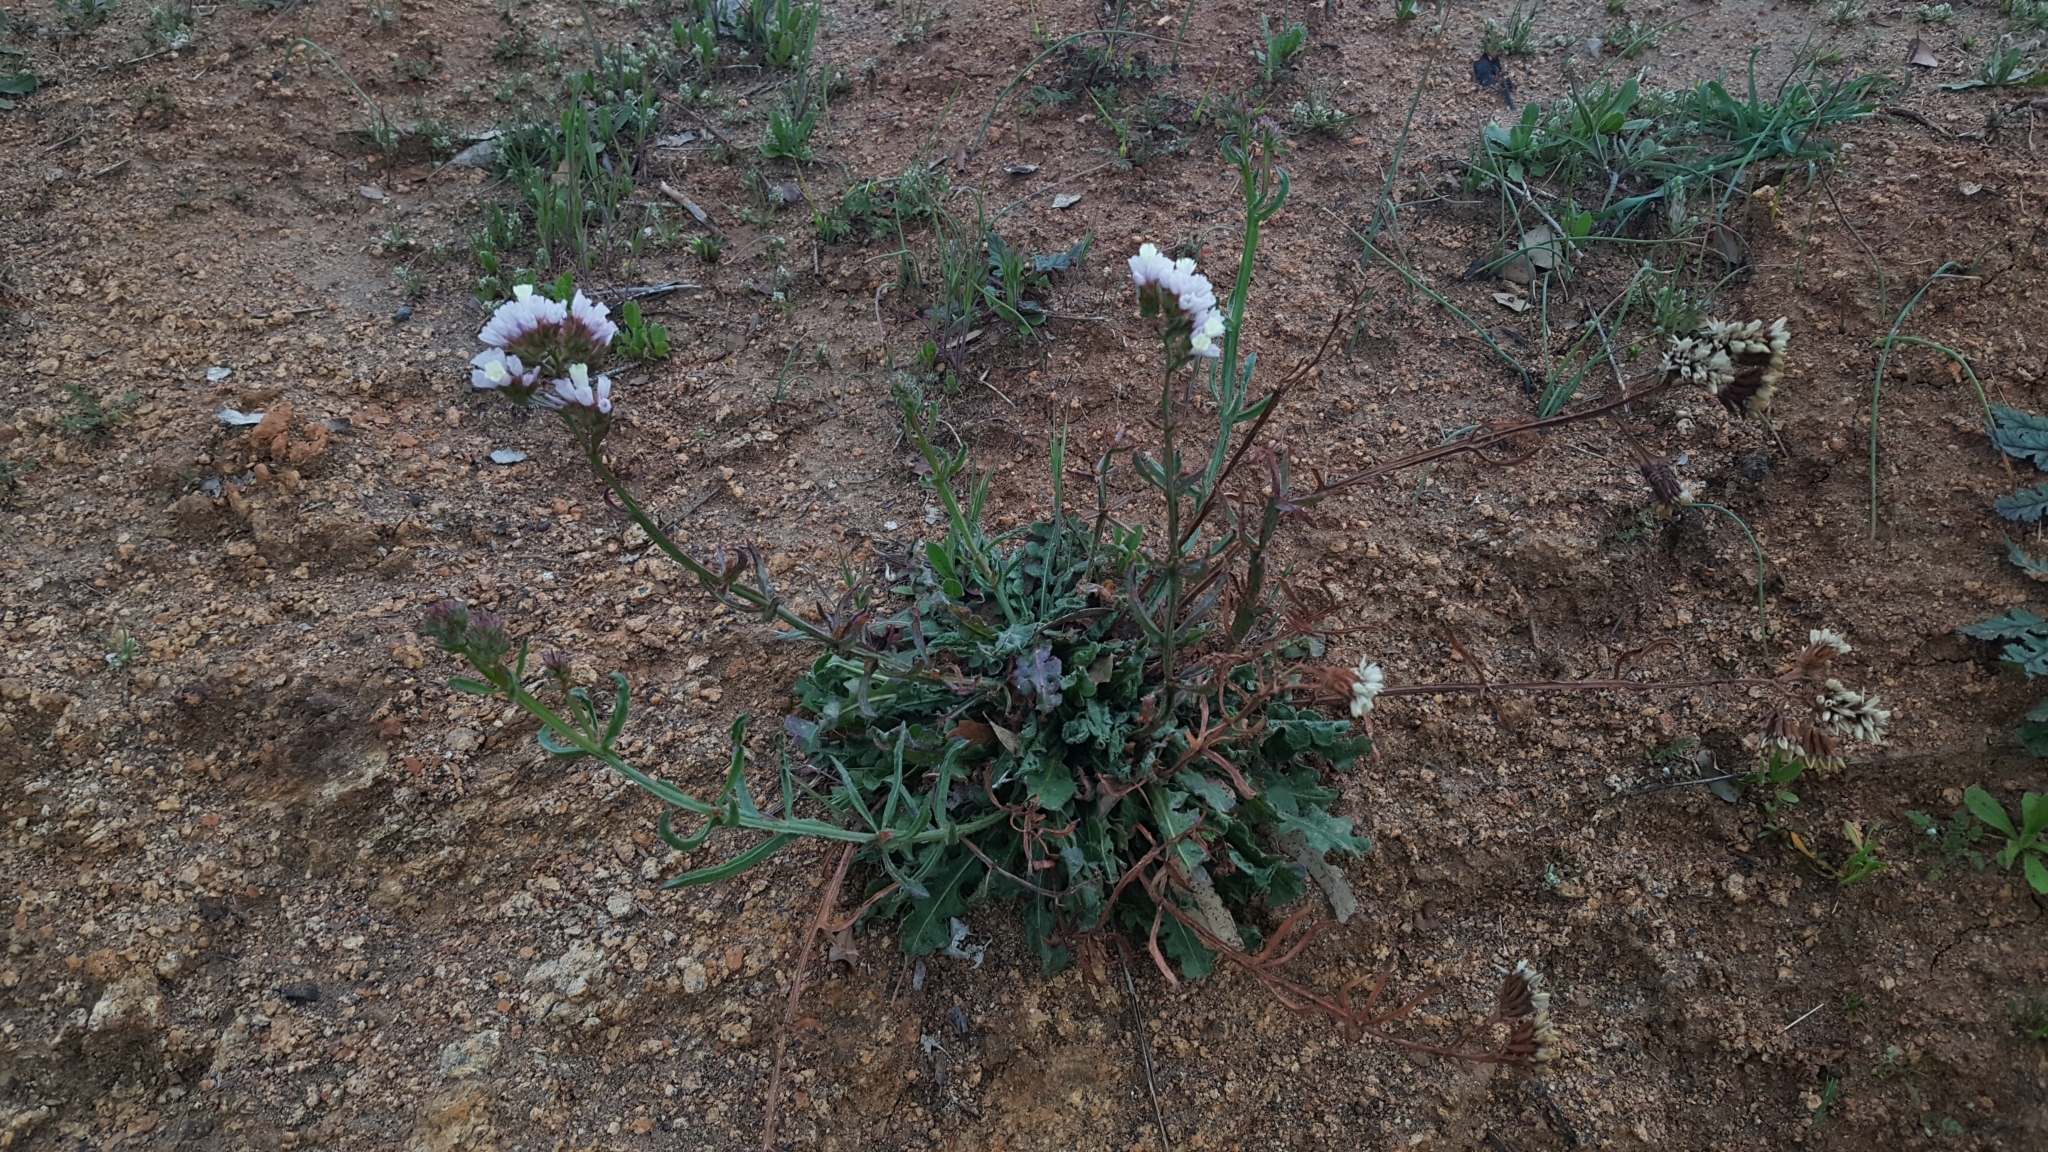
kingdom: Plantae
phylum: Tracheophyta
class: Magnoliopsida
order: Caryophyllales
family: Plumbaginaceae
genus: Limonium
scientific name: Limonium sinuatum
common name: Statice
